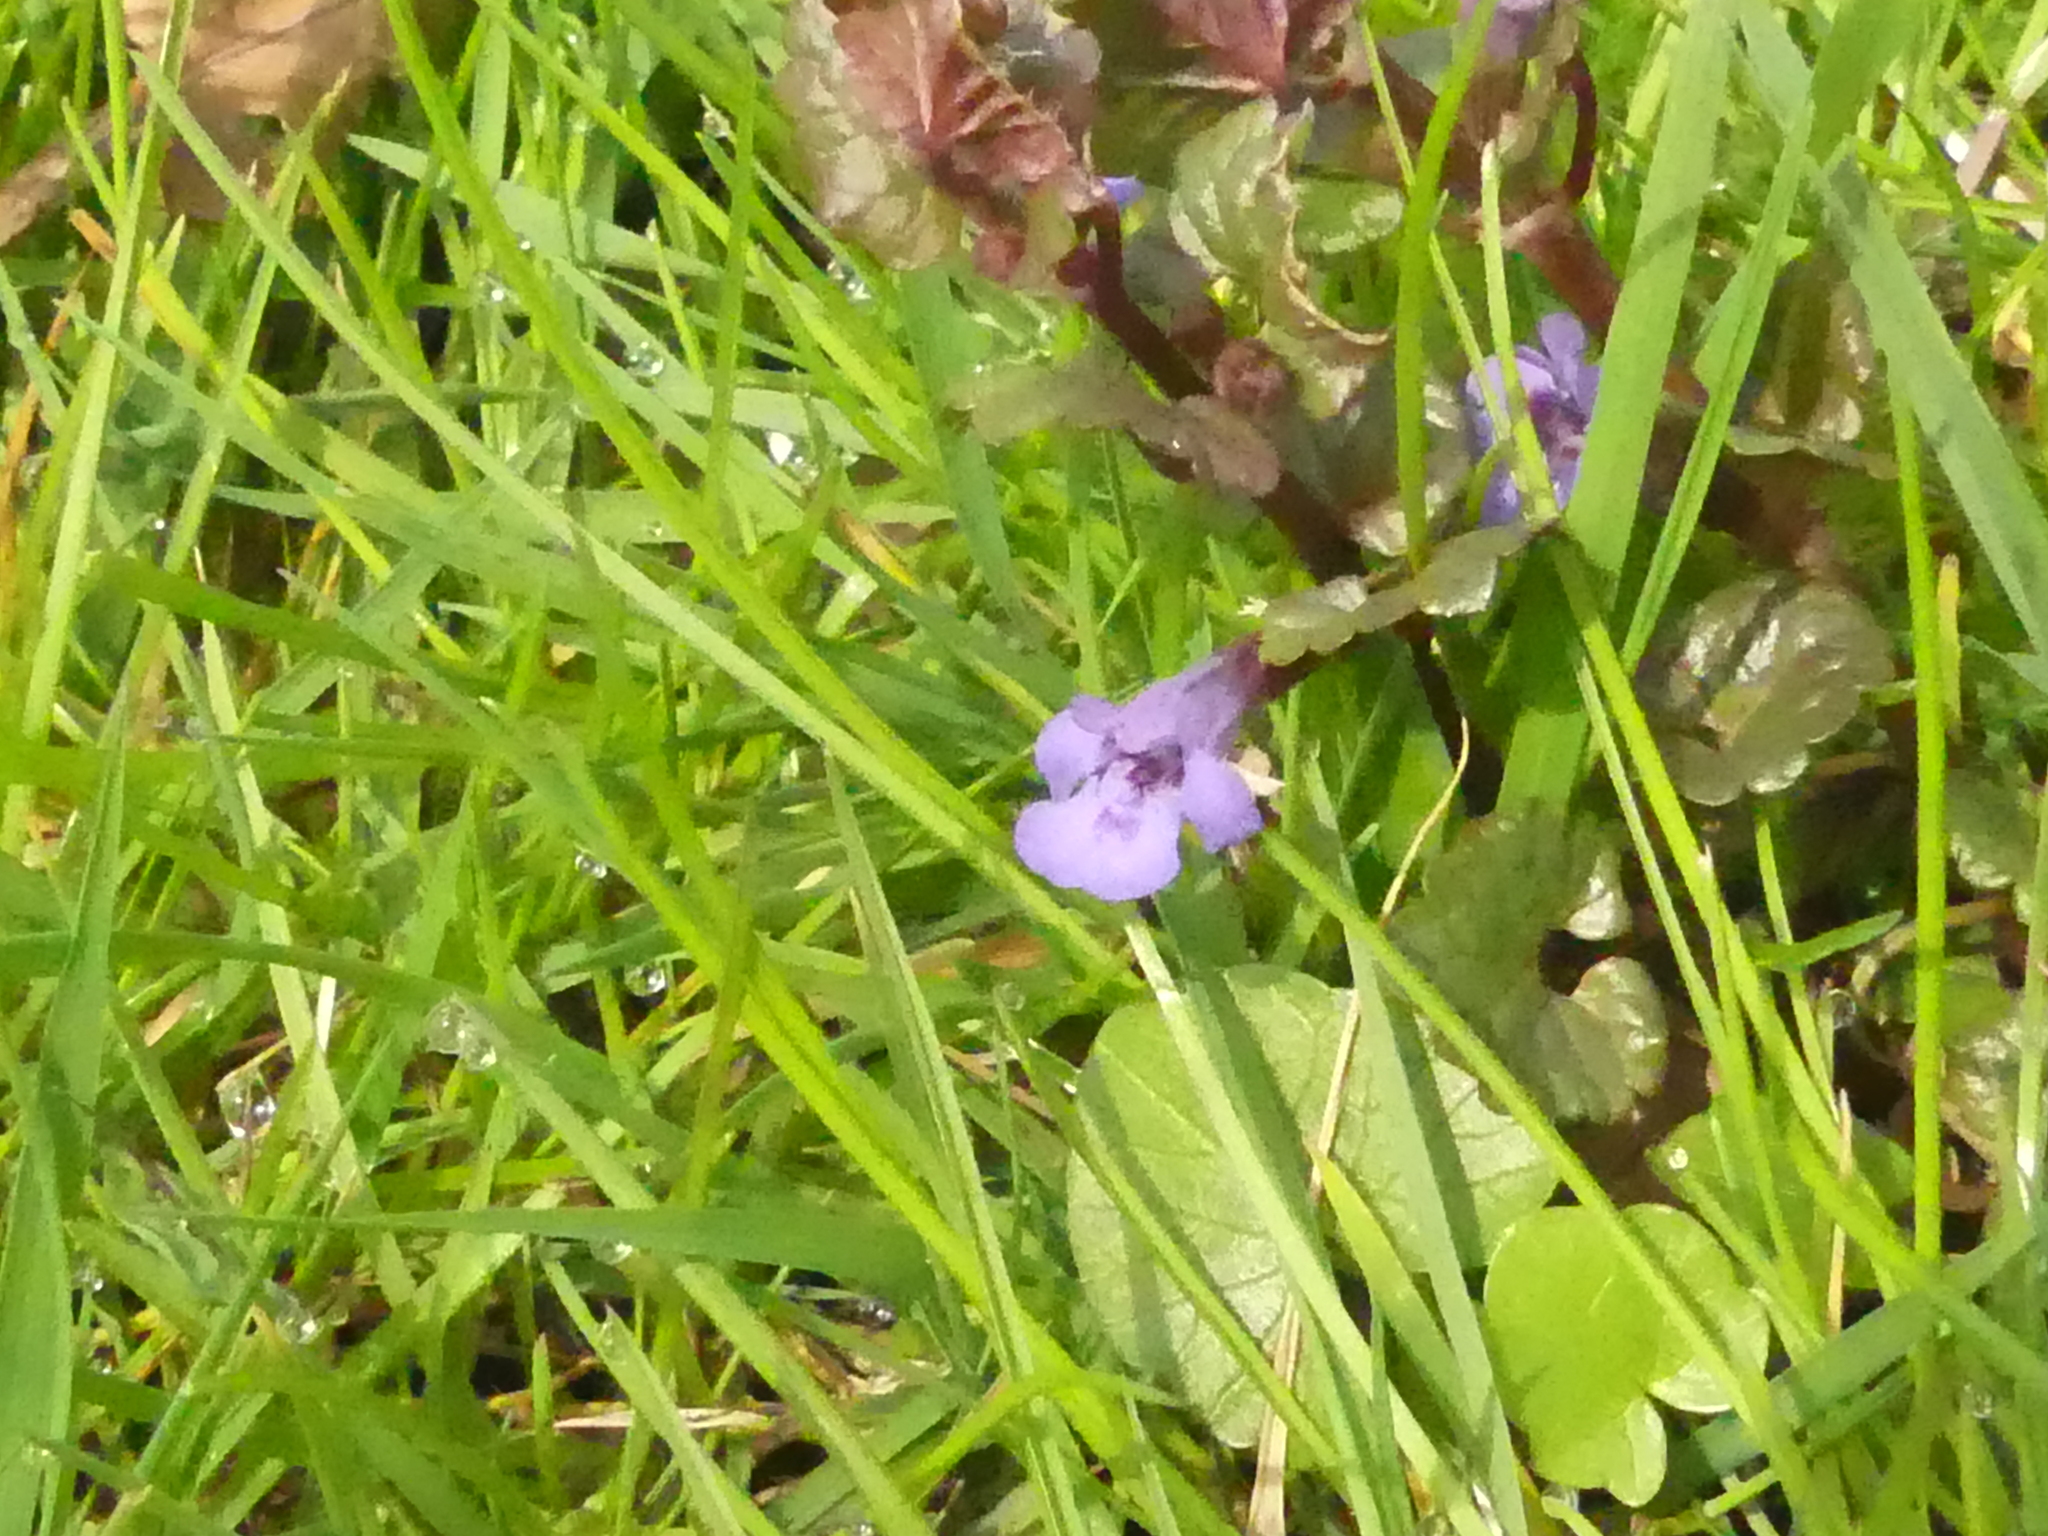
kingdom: Plantae
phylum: Tracheophyta
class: Magnoliopsida
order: Lamiales
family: Lamiaceae
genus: Glechoma
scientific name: Glechoma hederacea
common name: Ground ivy
